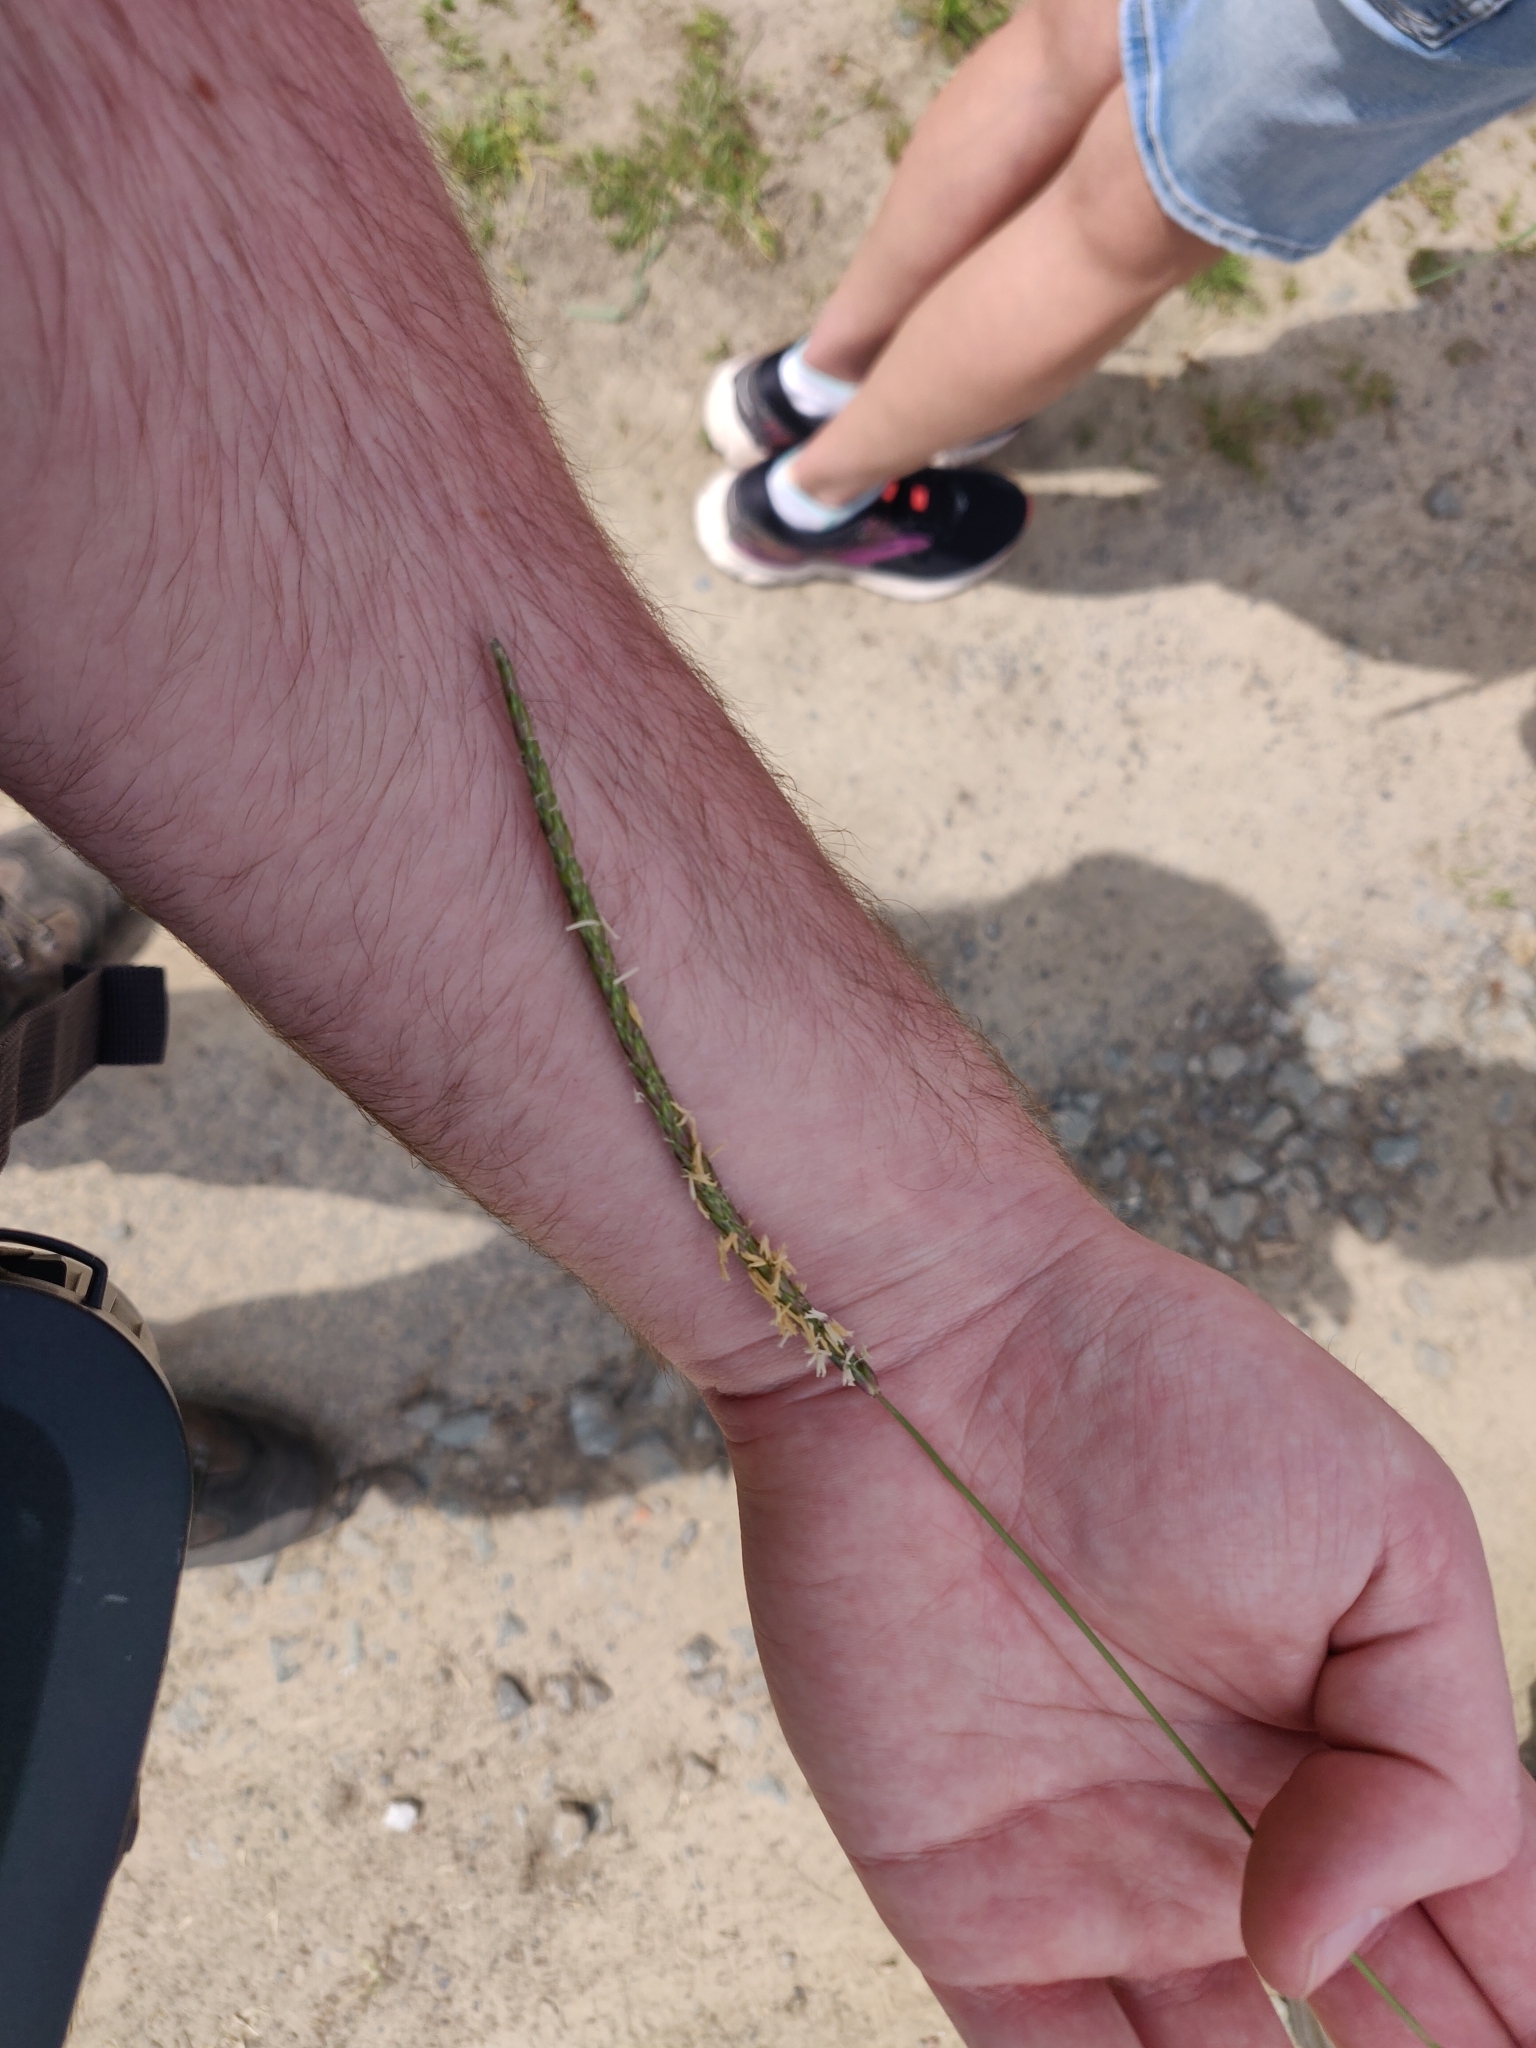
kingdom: Plantae
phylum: Tracheophyta
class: Liliopsida
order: Poales
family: Poaceae
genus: Alopecurus
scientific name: Alopecurus myosuroides
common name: Black-grass
